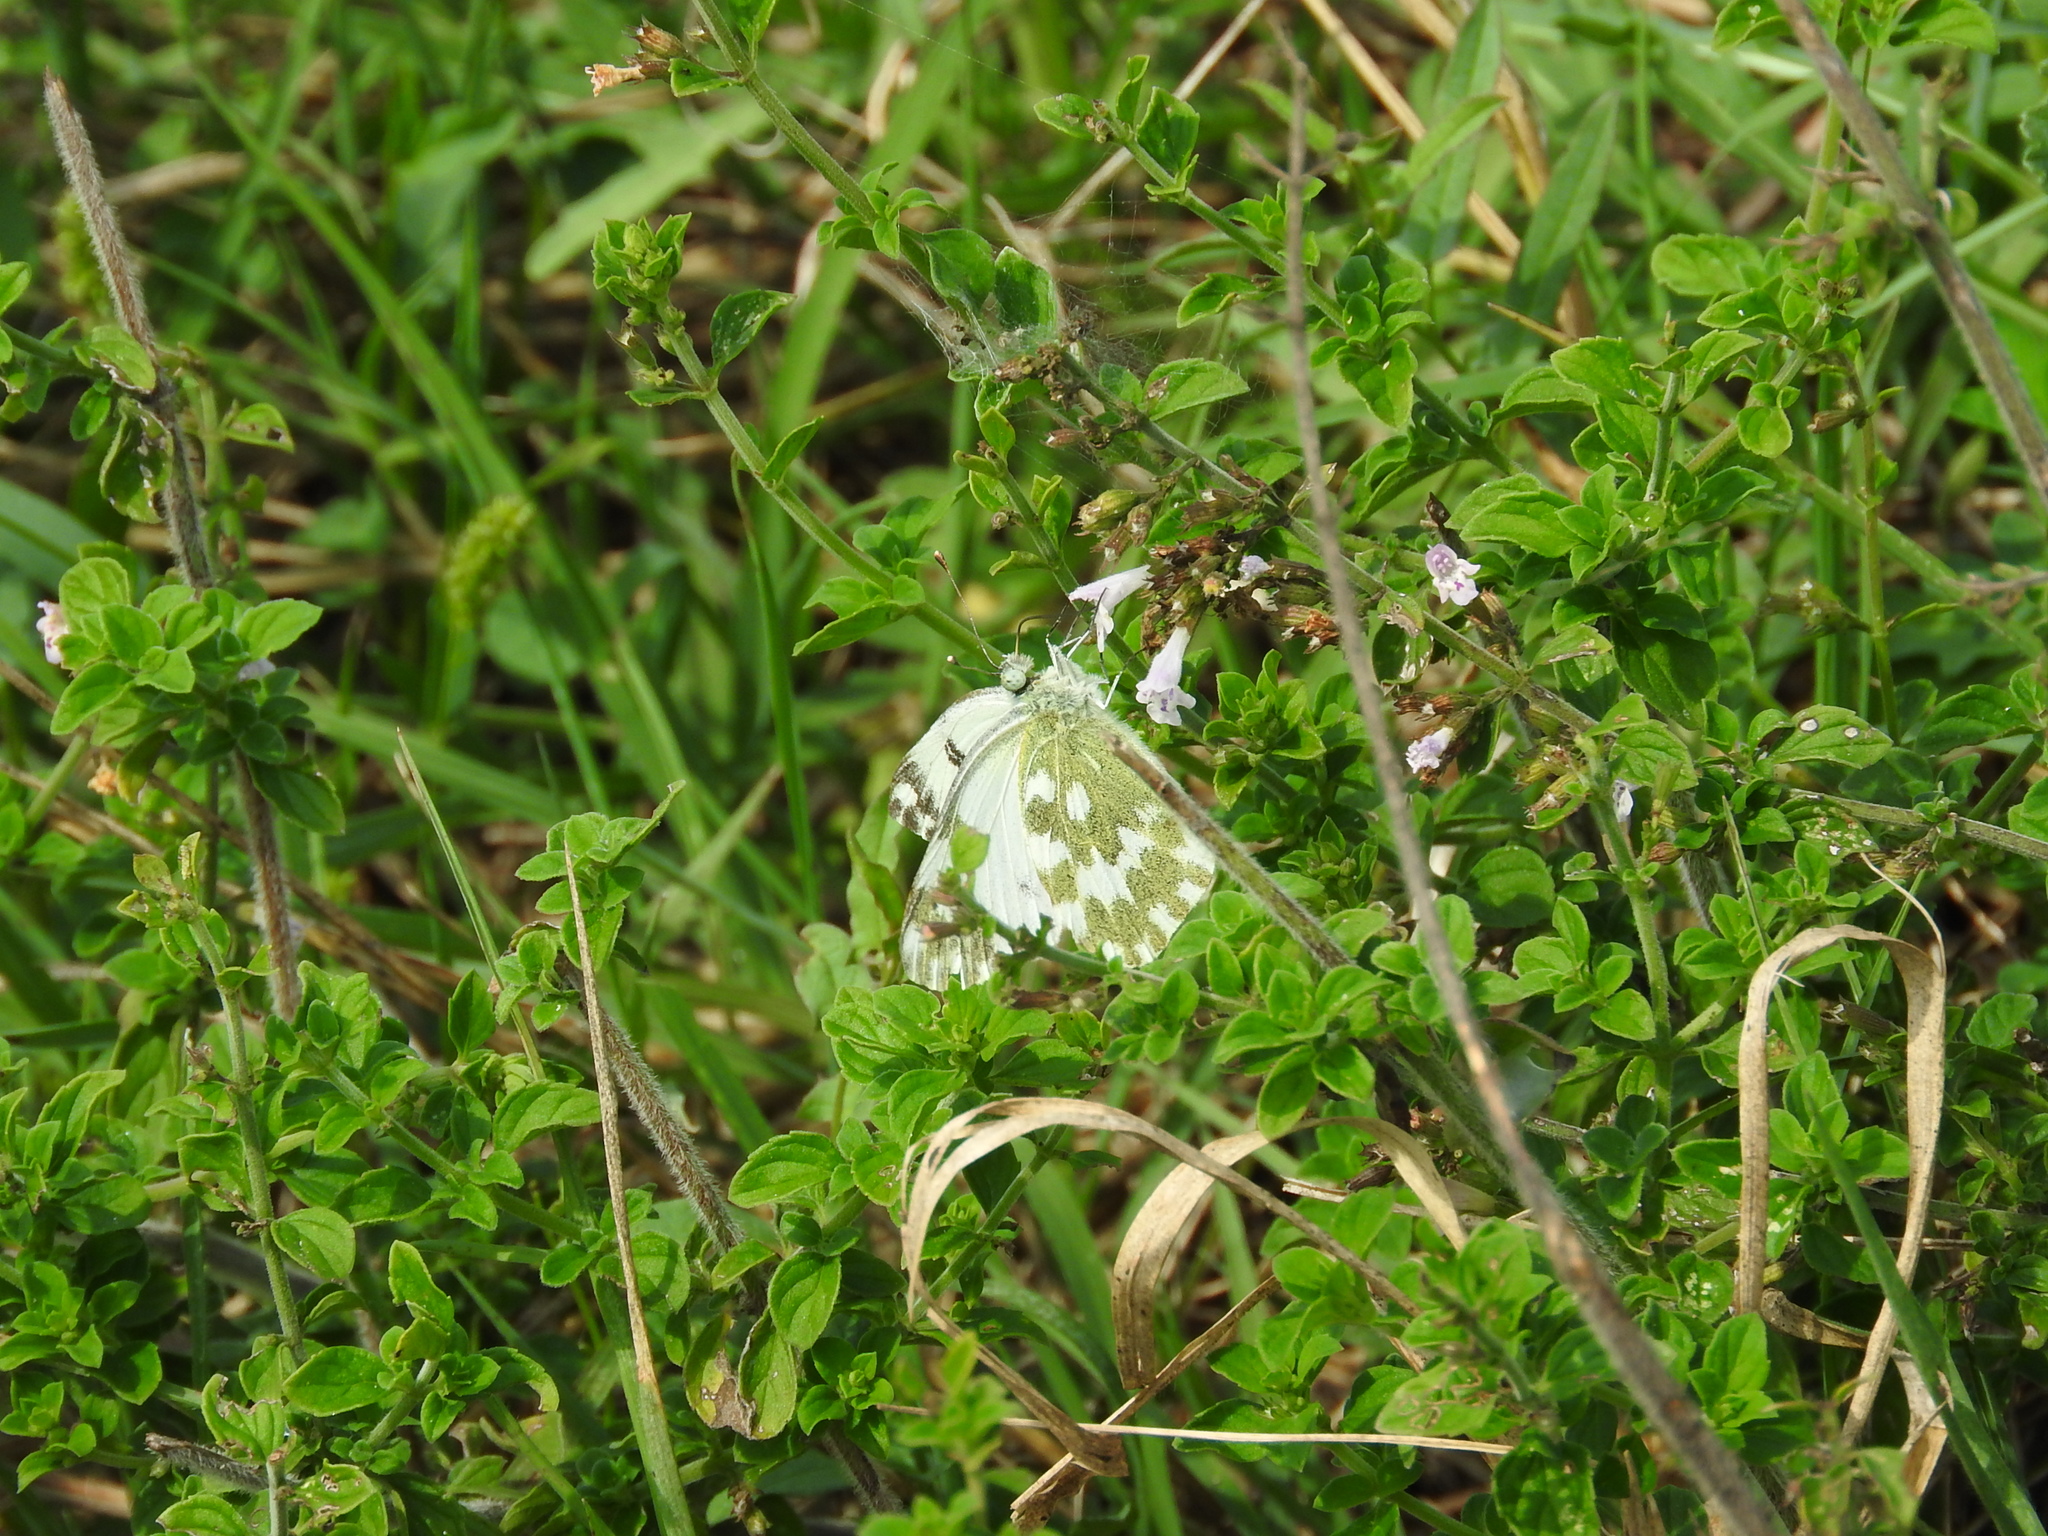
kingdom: Animalia
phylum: Arthropoda
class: Insecta
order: Lepidoptera
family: Pieridae
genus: Pontia
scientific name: Pontia edusa
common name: Eastern bath white
